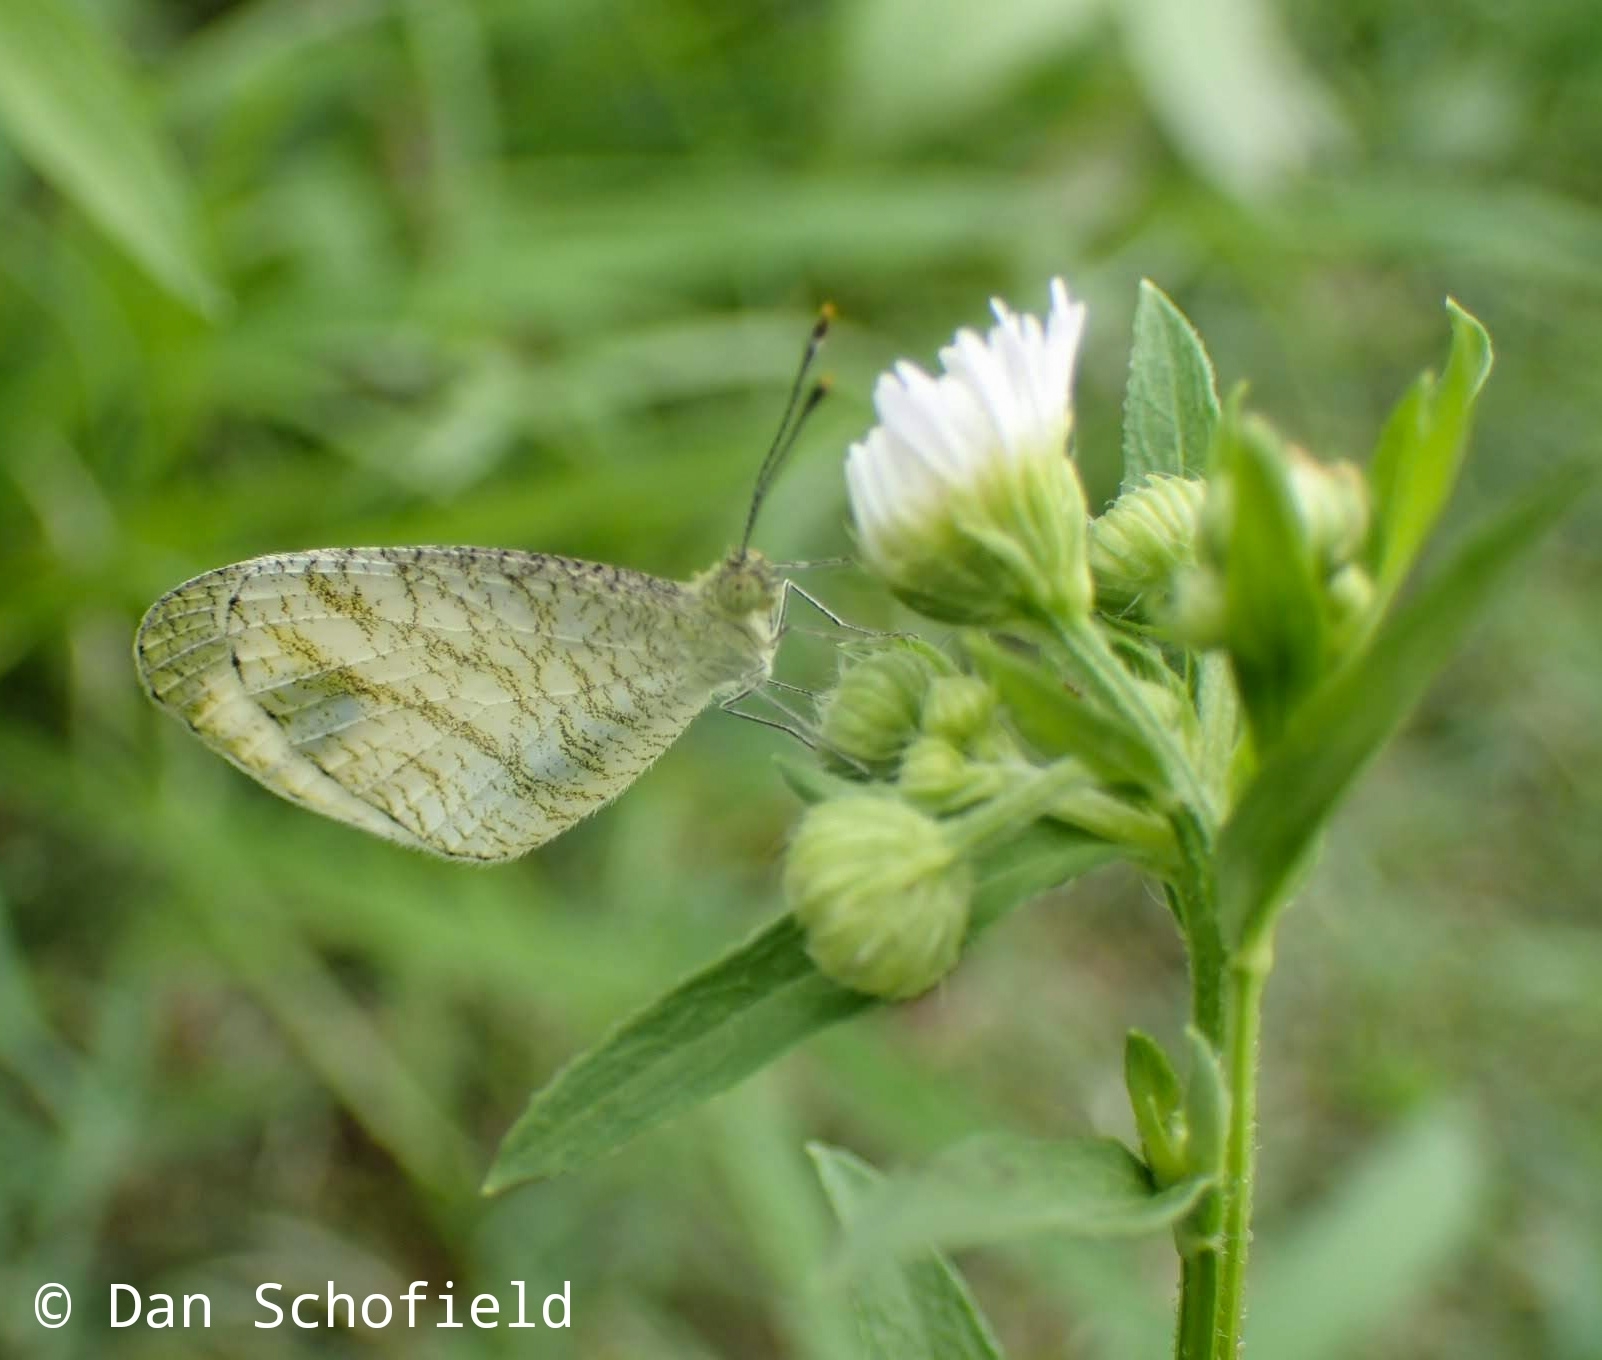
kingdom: Animalia
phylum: Arthropoda
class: Insecta
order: Lepidoptera
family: Pieridae
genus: Leptosia
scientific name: Leptosia nina
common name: Psyche
